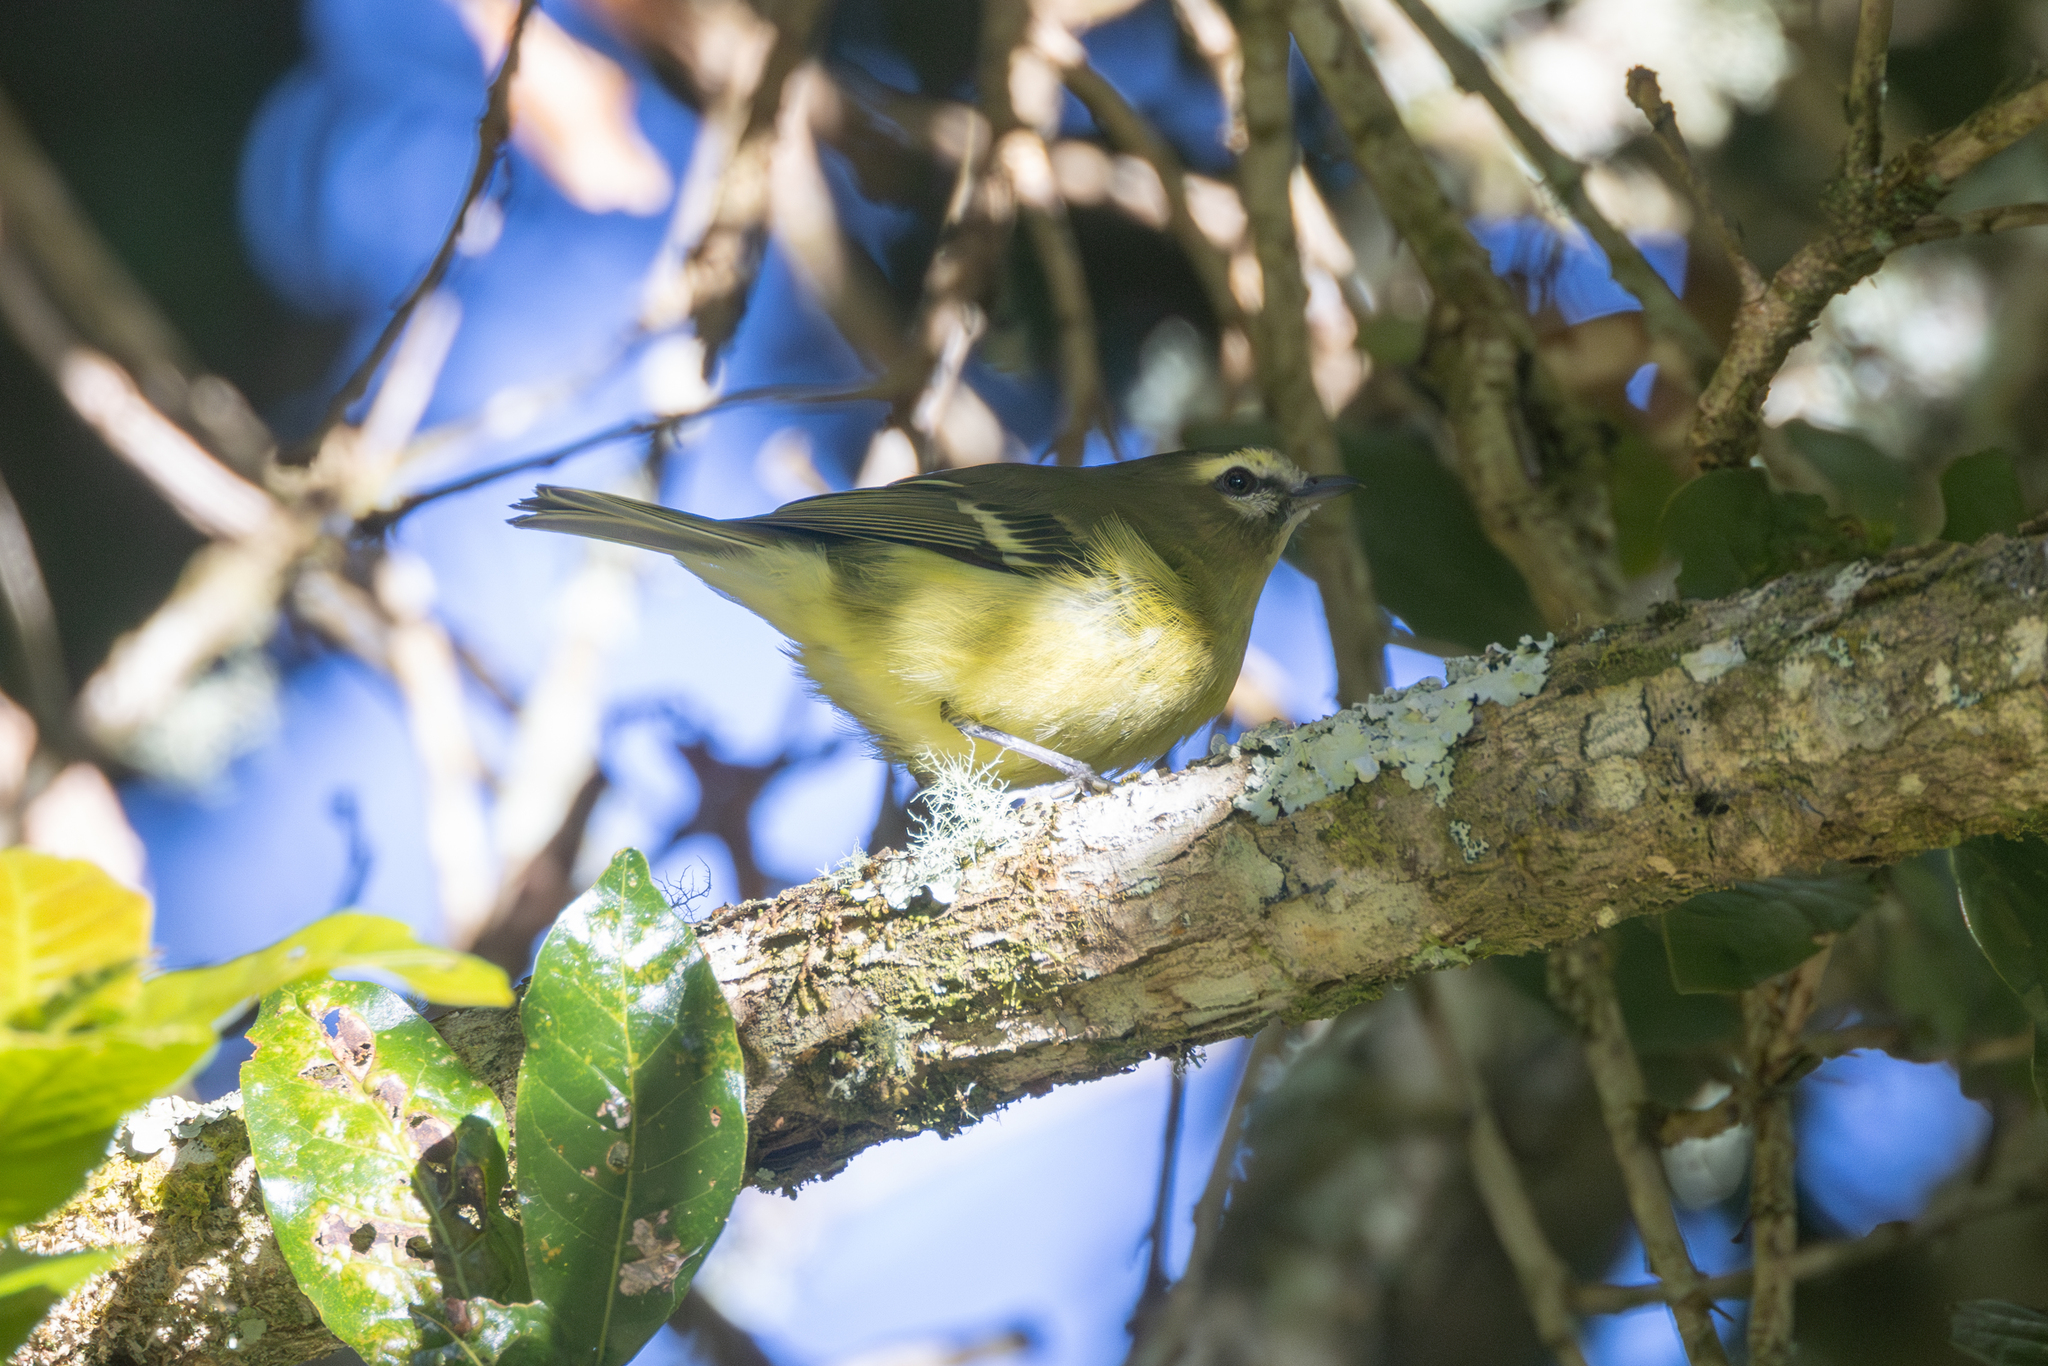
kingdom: Animalia
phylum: Chordata
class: Aves
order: Passeriformes
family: Vireonidae
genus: Vireo
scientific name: Vireo carmioli
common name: Yellow-winged vireo
